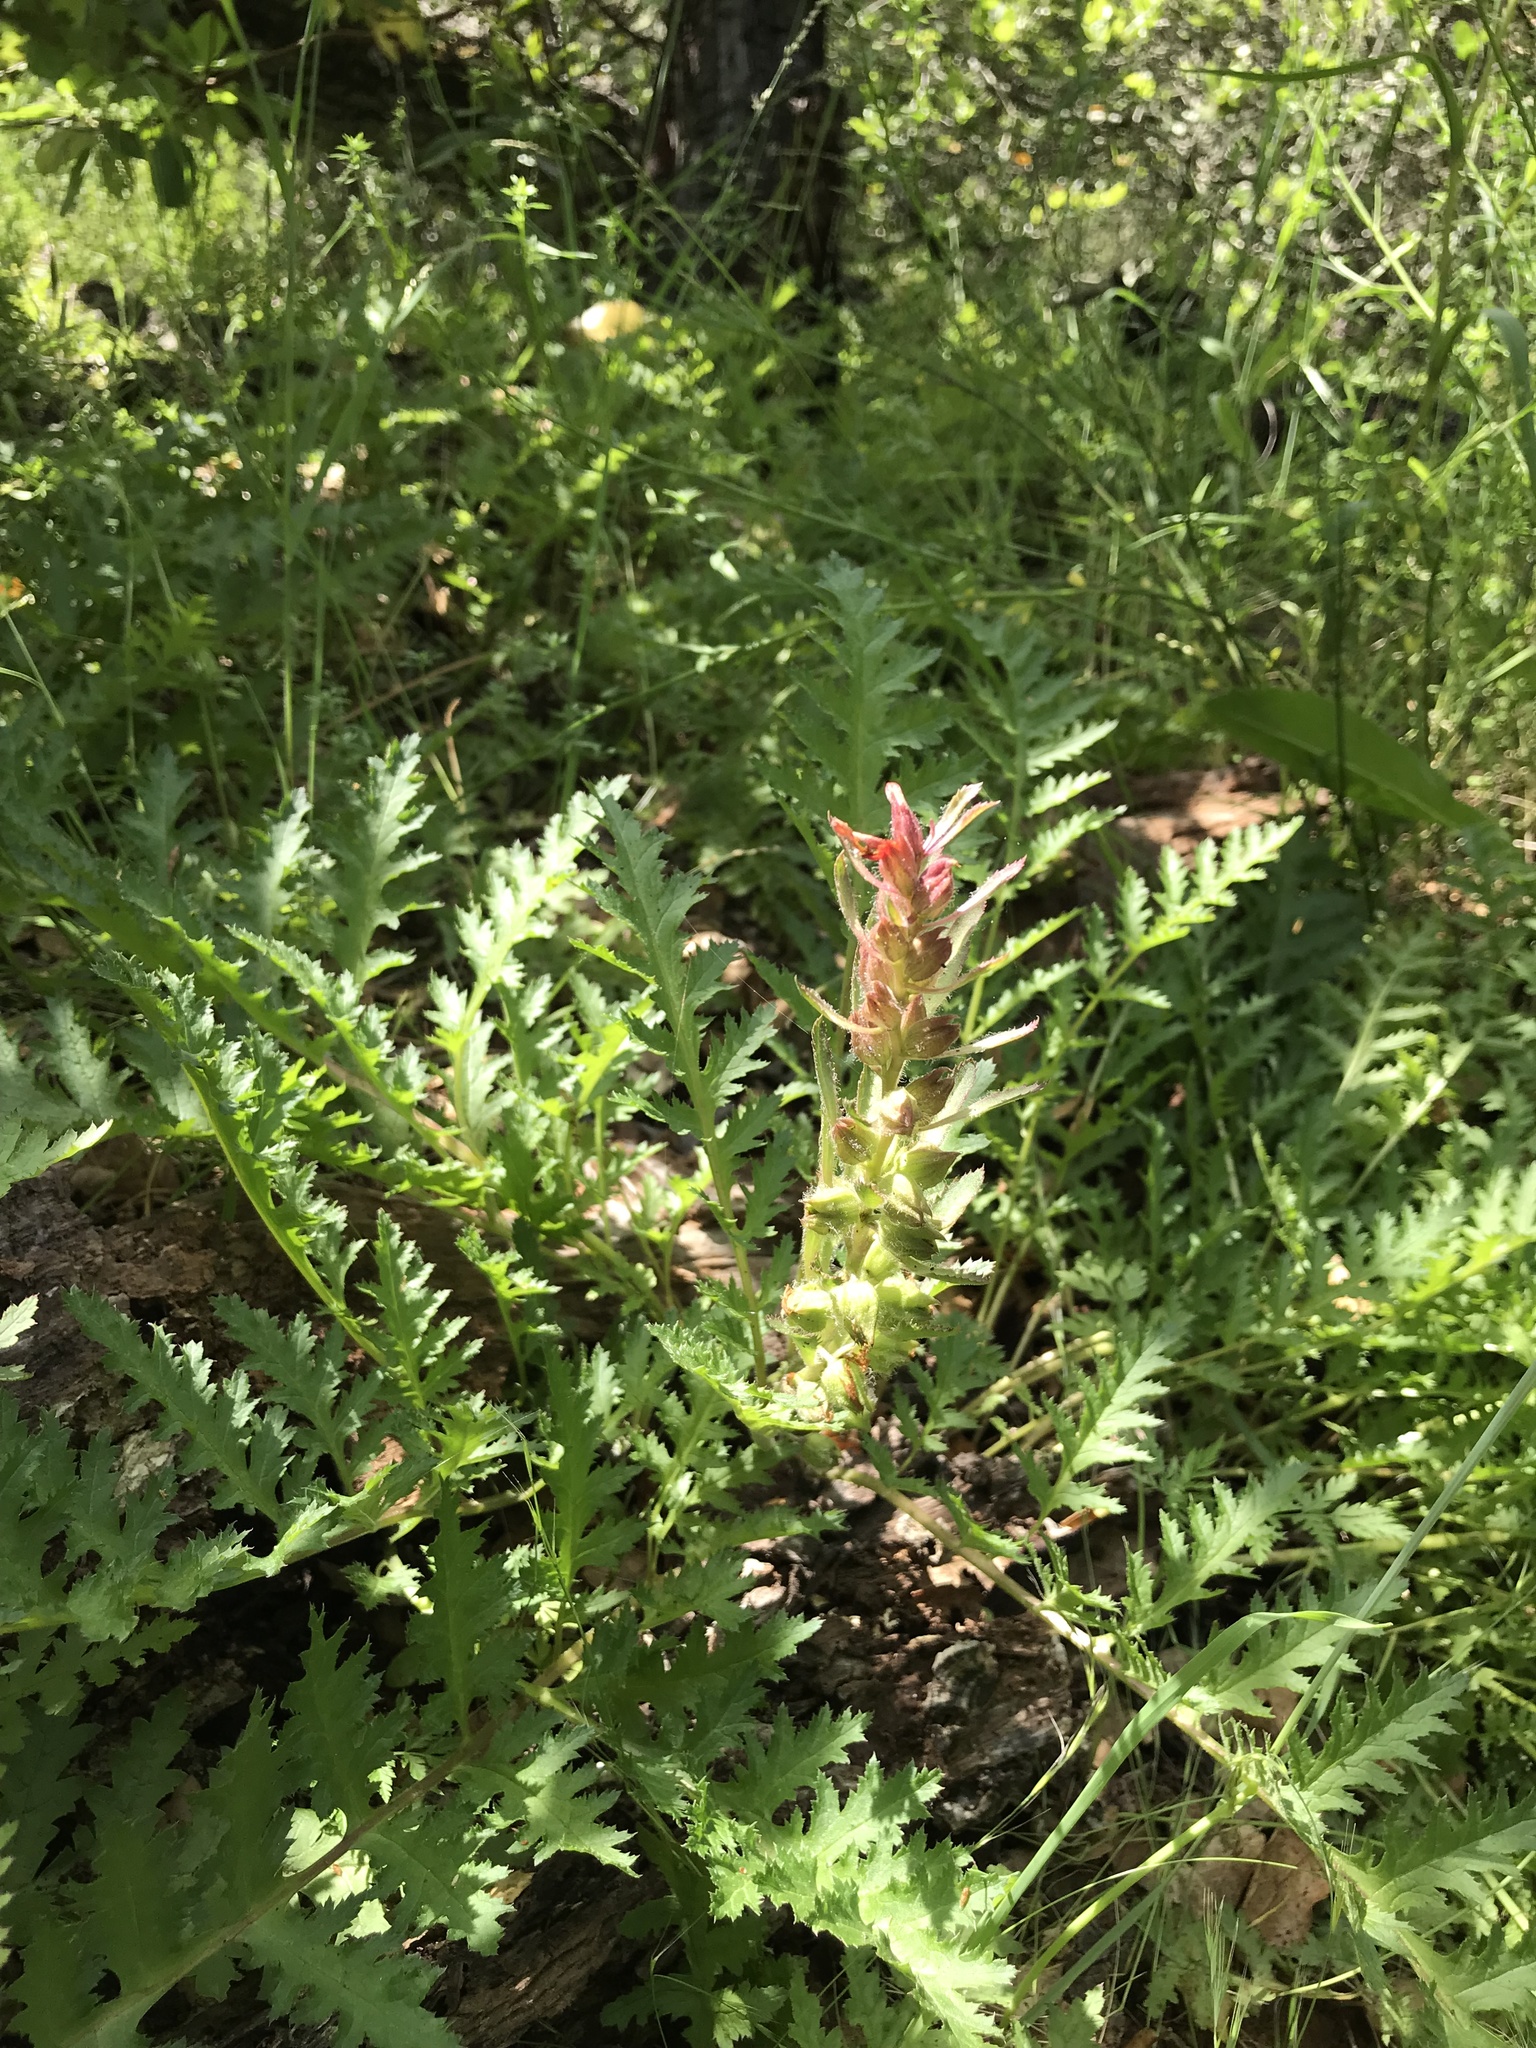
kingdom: Plantae
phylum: Tracheophyta
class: Magnoliopsida
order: Lamiales
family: Orobanchaceae
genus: Pedicularis
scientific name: Pedicularis densiflora
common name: Indian warrior
